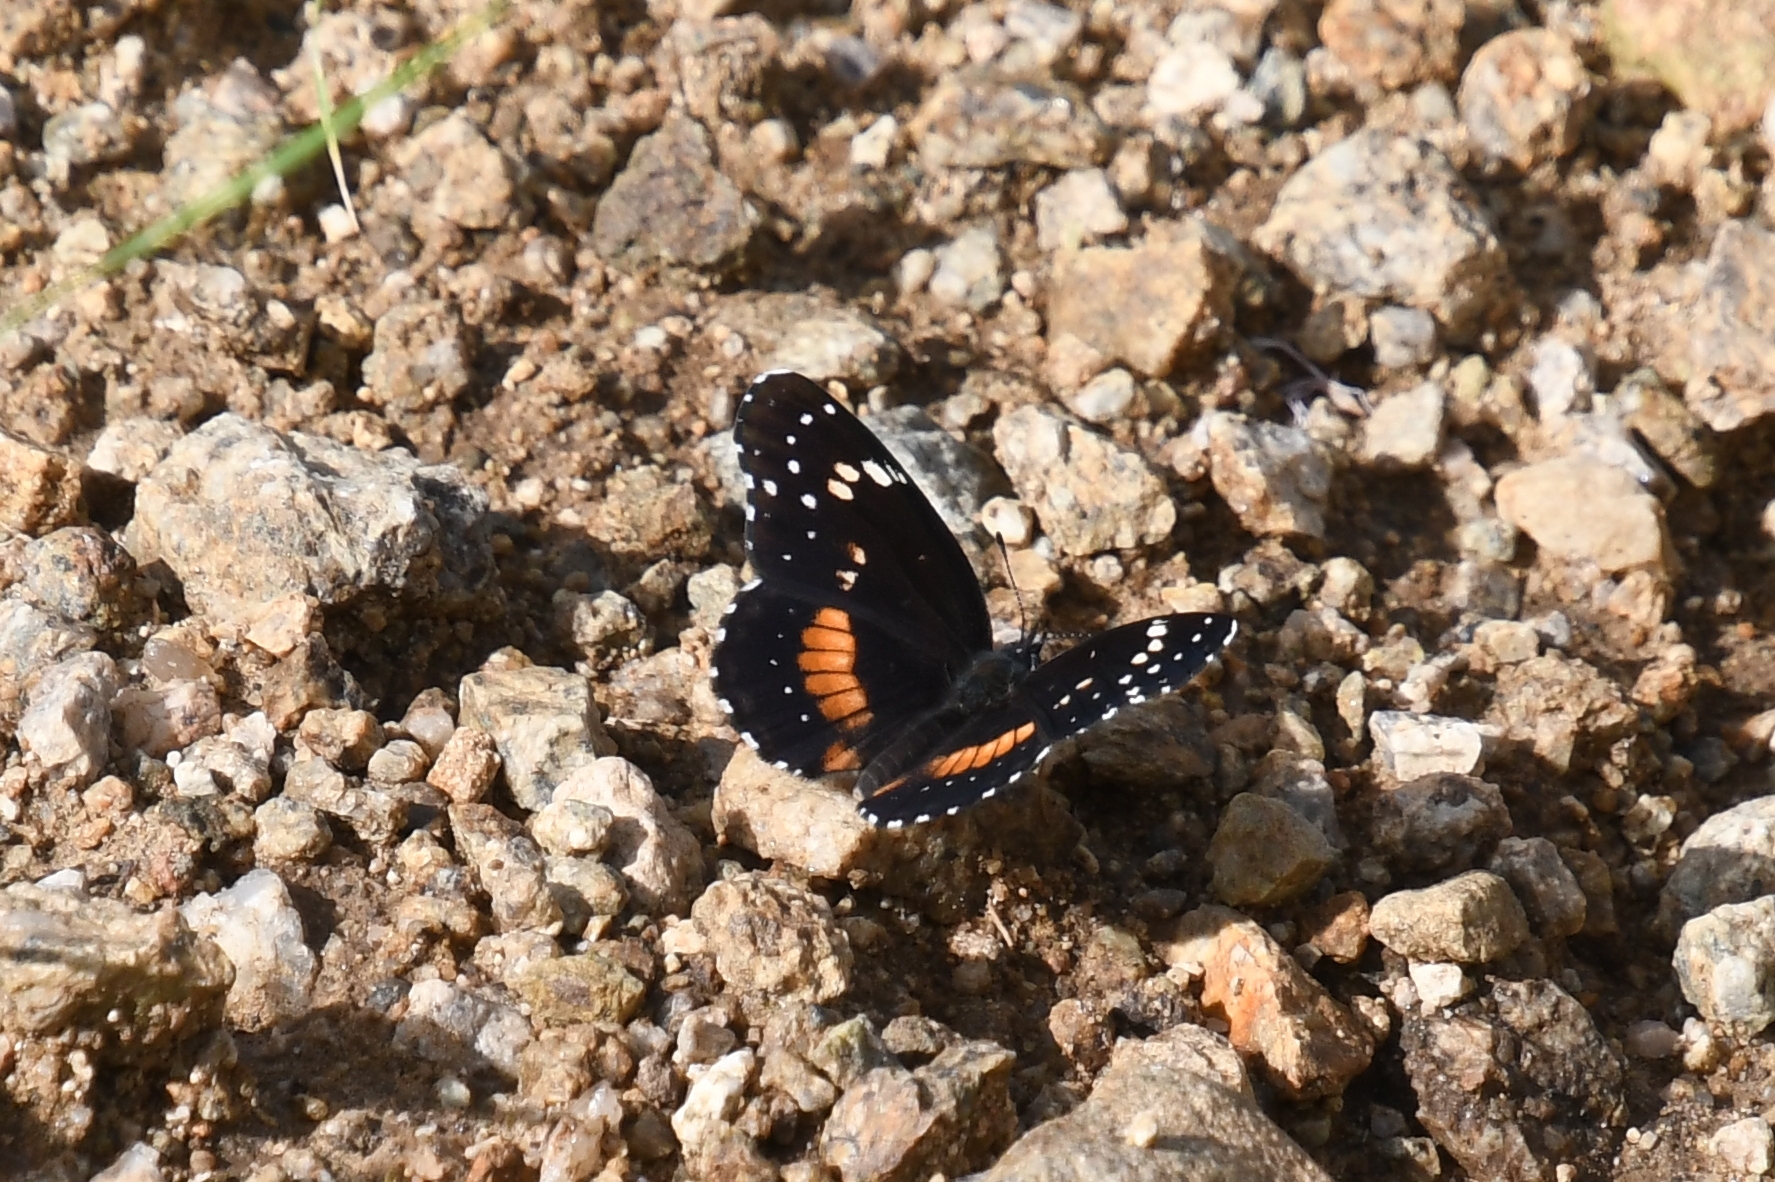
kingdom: Animalia
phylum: Arthropoda
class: Insecta
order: Lepidoptera
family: Nymphalidae
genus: Chlosyne
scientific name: Chlosyne lacinia
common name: Bordered patch
